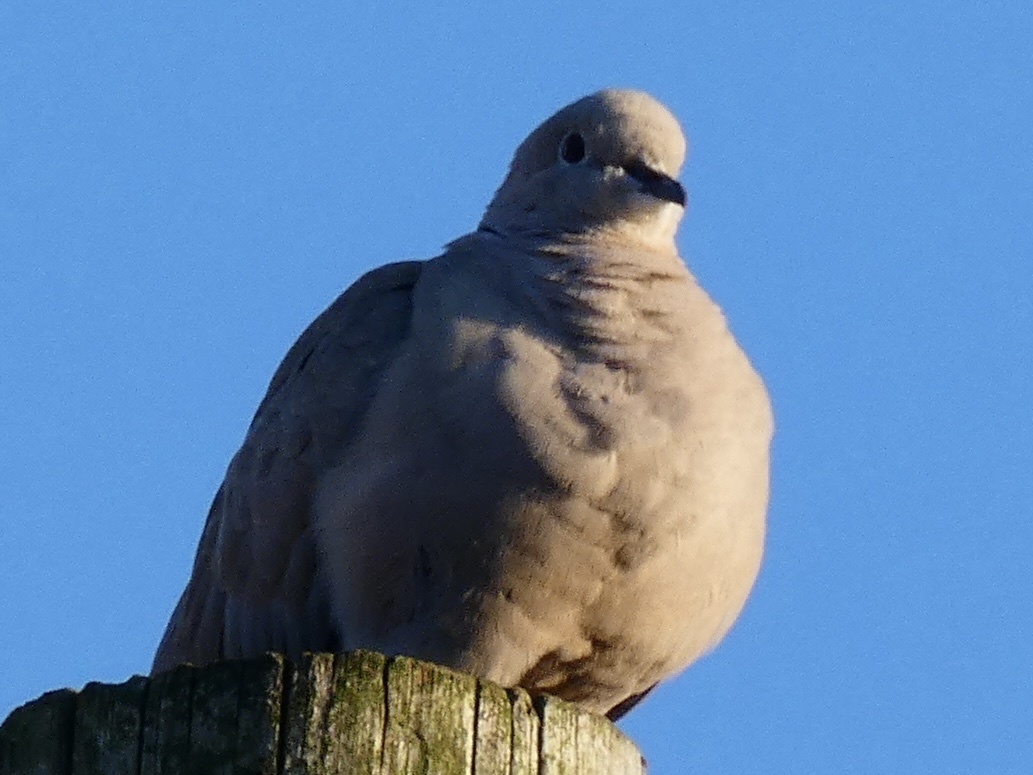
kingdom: Animalia
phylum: Chordata
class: Aves
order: Columbiformes
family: Columbidae
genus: Streptopelia
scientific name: Streptopelia decaocto
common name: Eurasian collared dove
